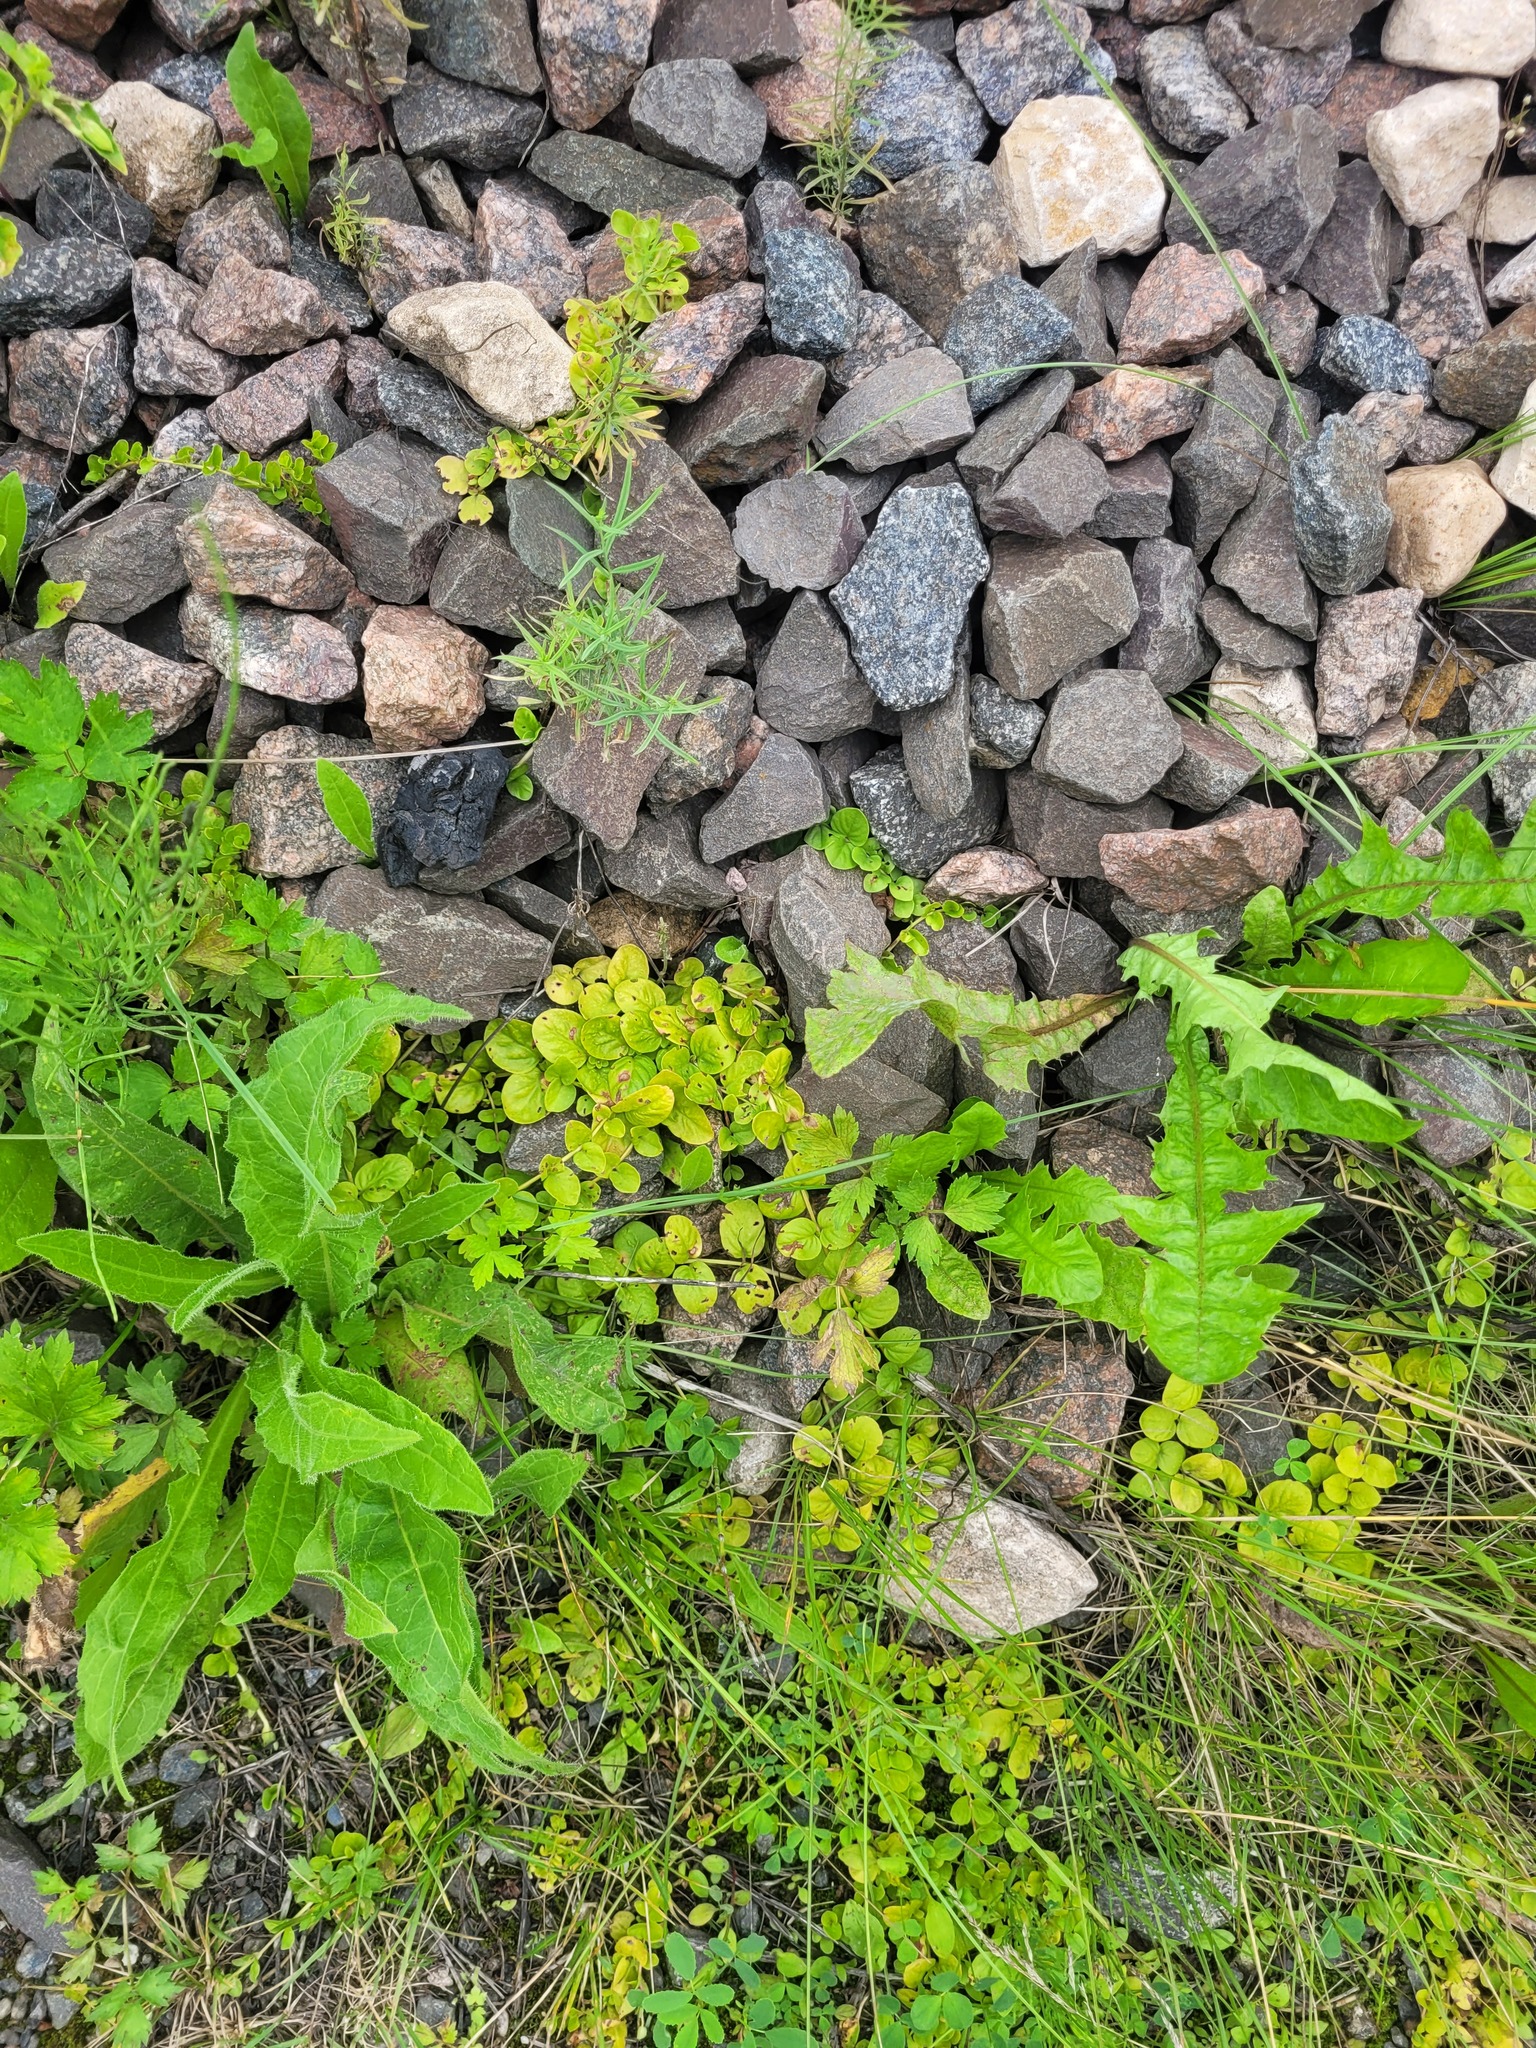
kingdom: Plantae
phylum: Tracheophyta
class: Magnoliopsida
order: Ericales
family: Primulaceae
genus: Lysimachia
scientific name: Lysimachia nummularia
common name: Moneywort
